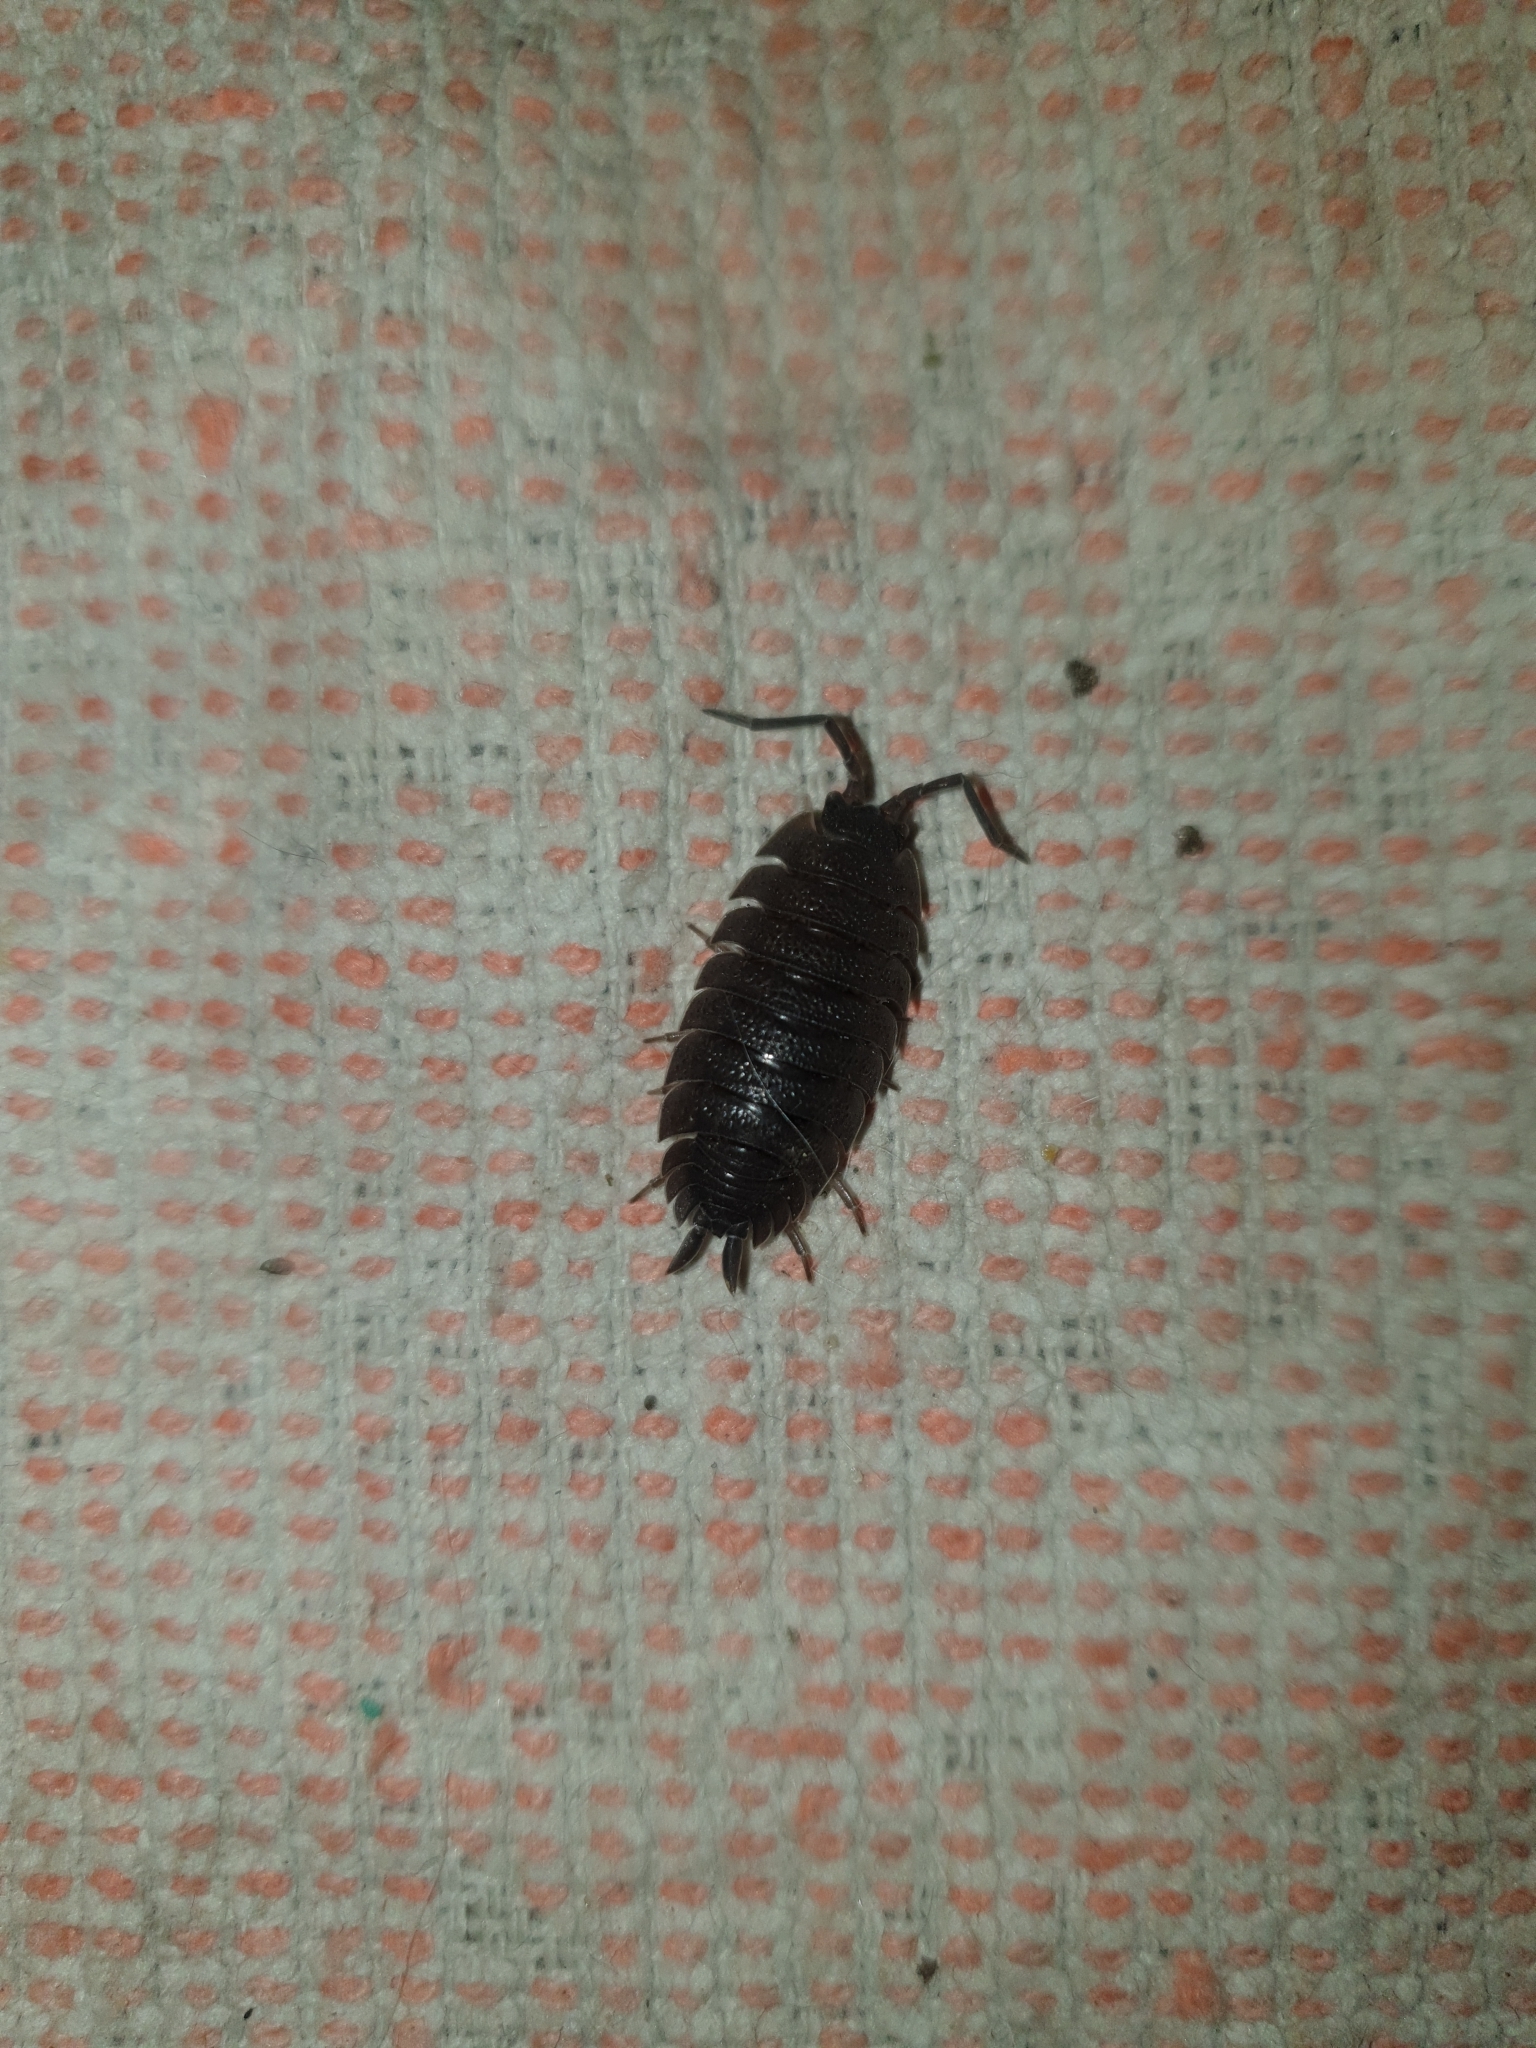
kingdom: Animalia
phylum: Arthropoda
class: Malacostraca
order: Isopoda
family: Porcellionidae
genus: Porcellio
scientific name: Porcellio scaber
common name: Common rough woodlouse
